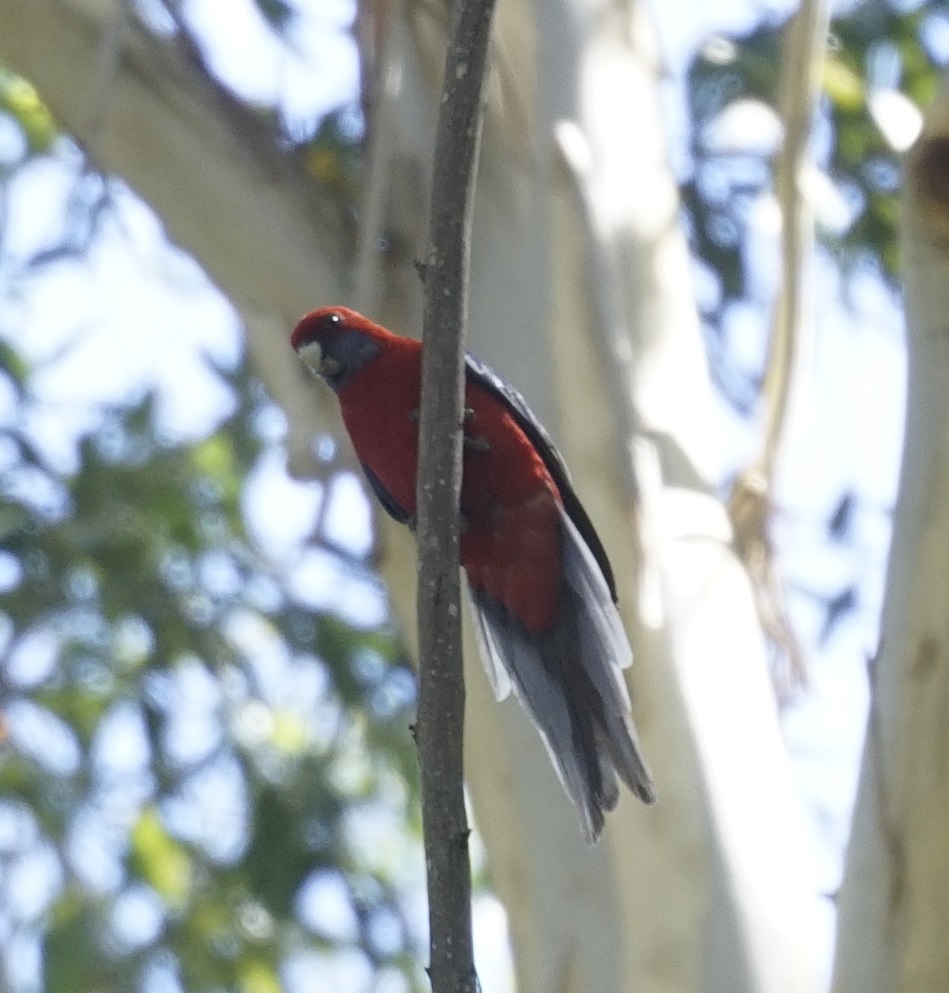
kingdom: Animalia
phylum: Chordata
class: Aves
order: Psittaciformes
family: Psittacidae
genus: Platycercus
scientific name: Platycercus elegans
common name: Crimson rosella
